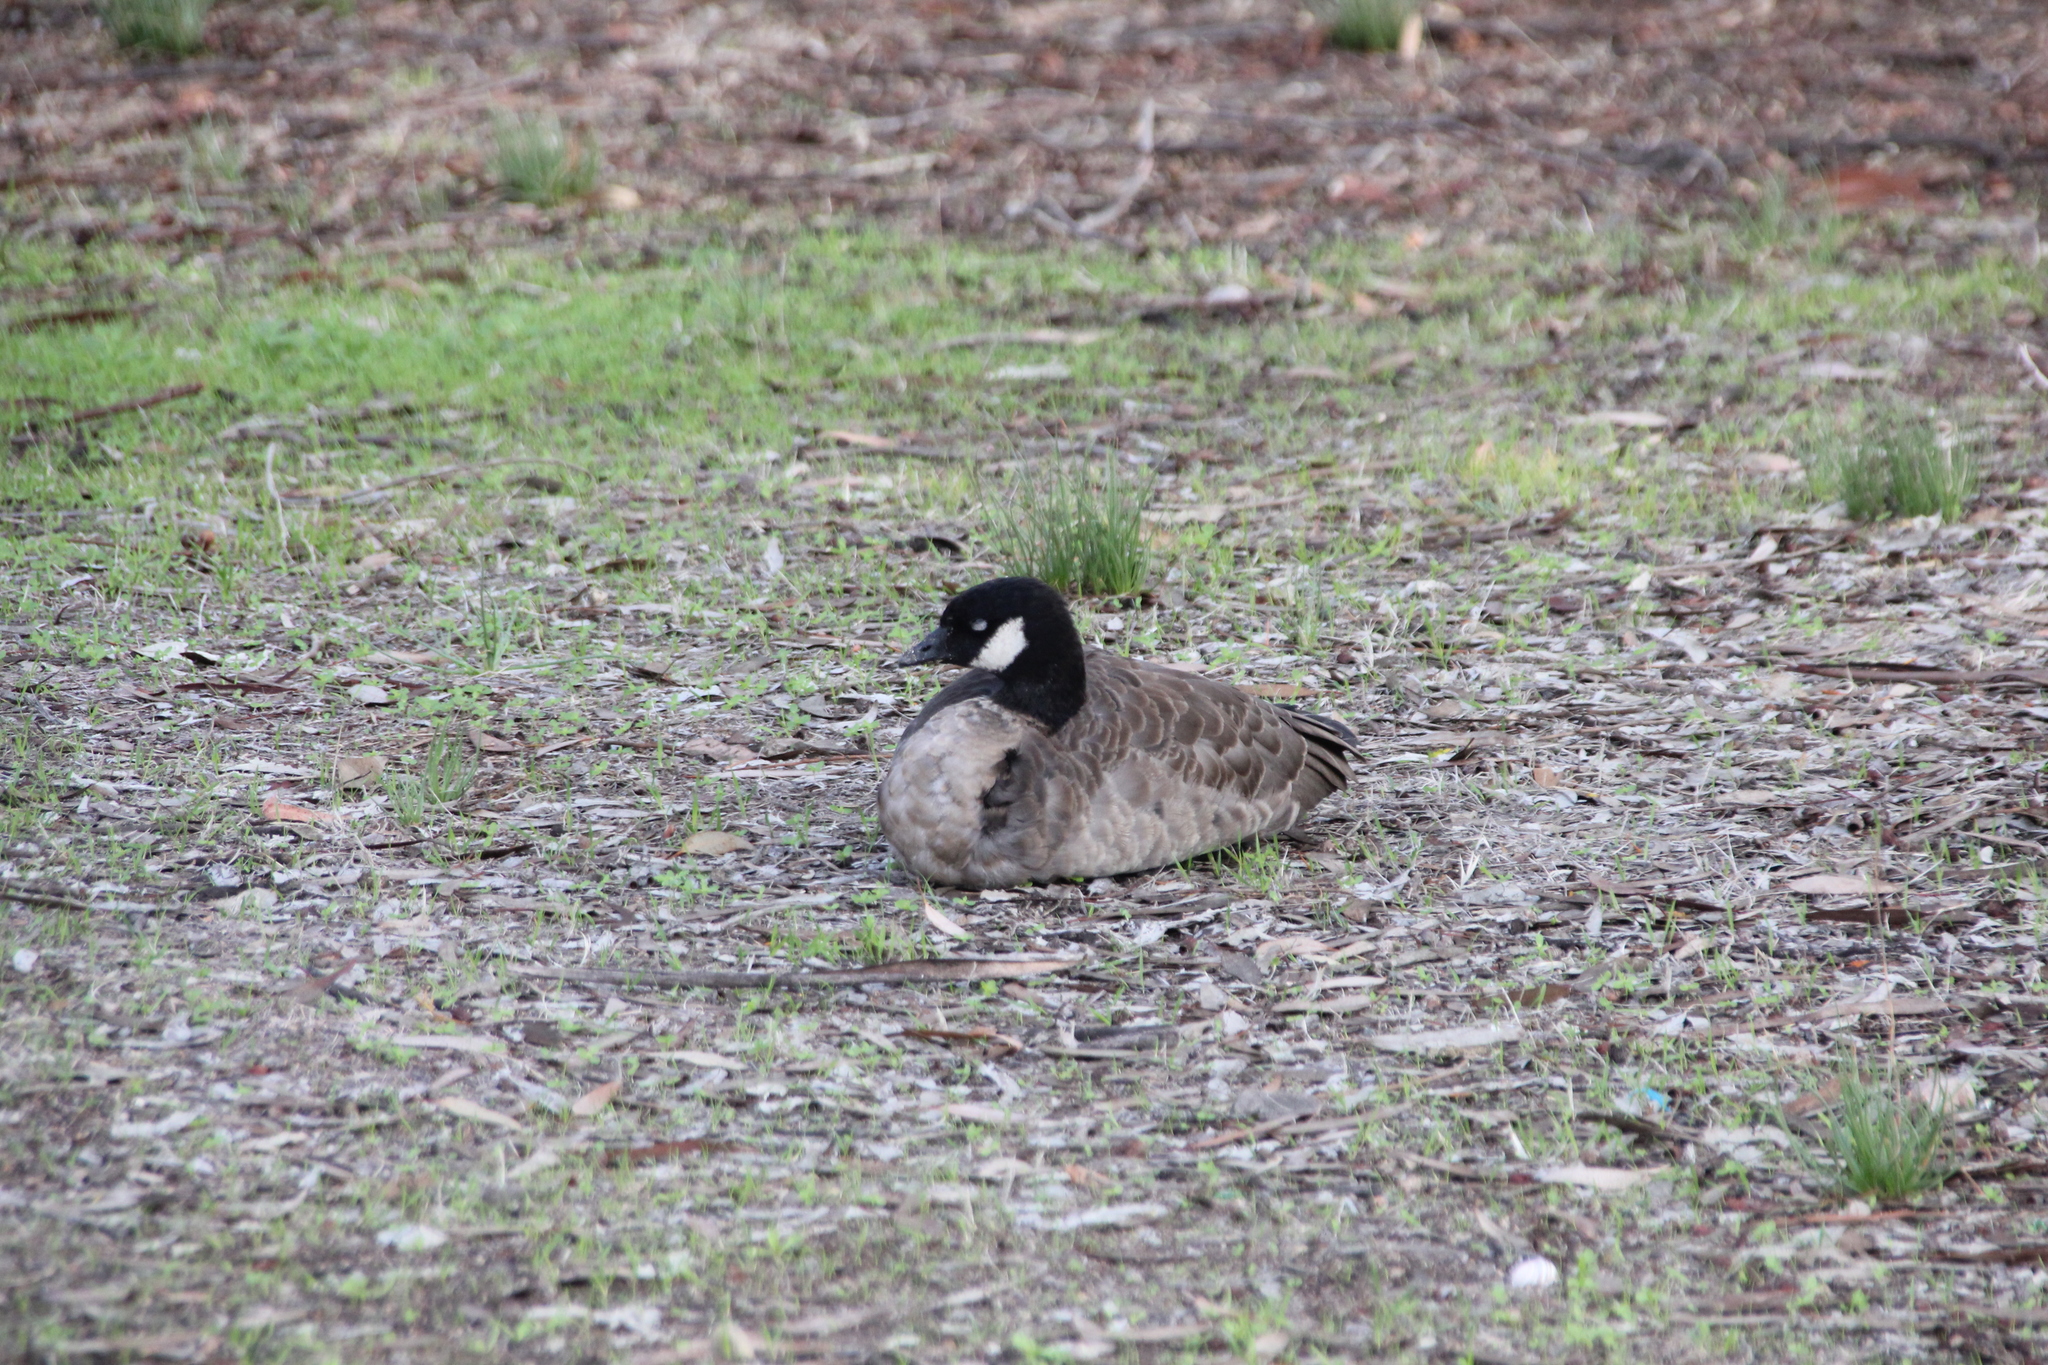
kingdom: Animalia
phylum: Chordata
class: Aves
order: Anseriformes
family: Anatidae
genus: Branta
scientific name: Branta hutchinsii
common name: Cackling goose
